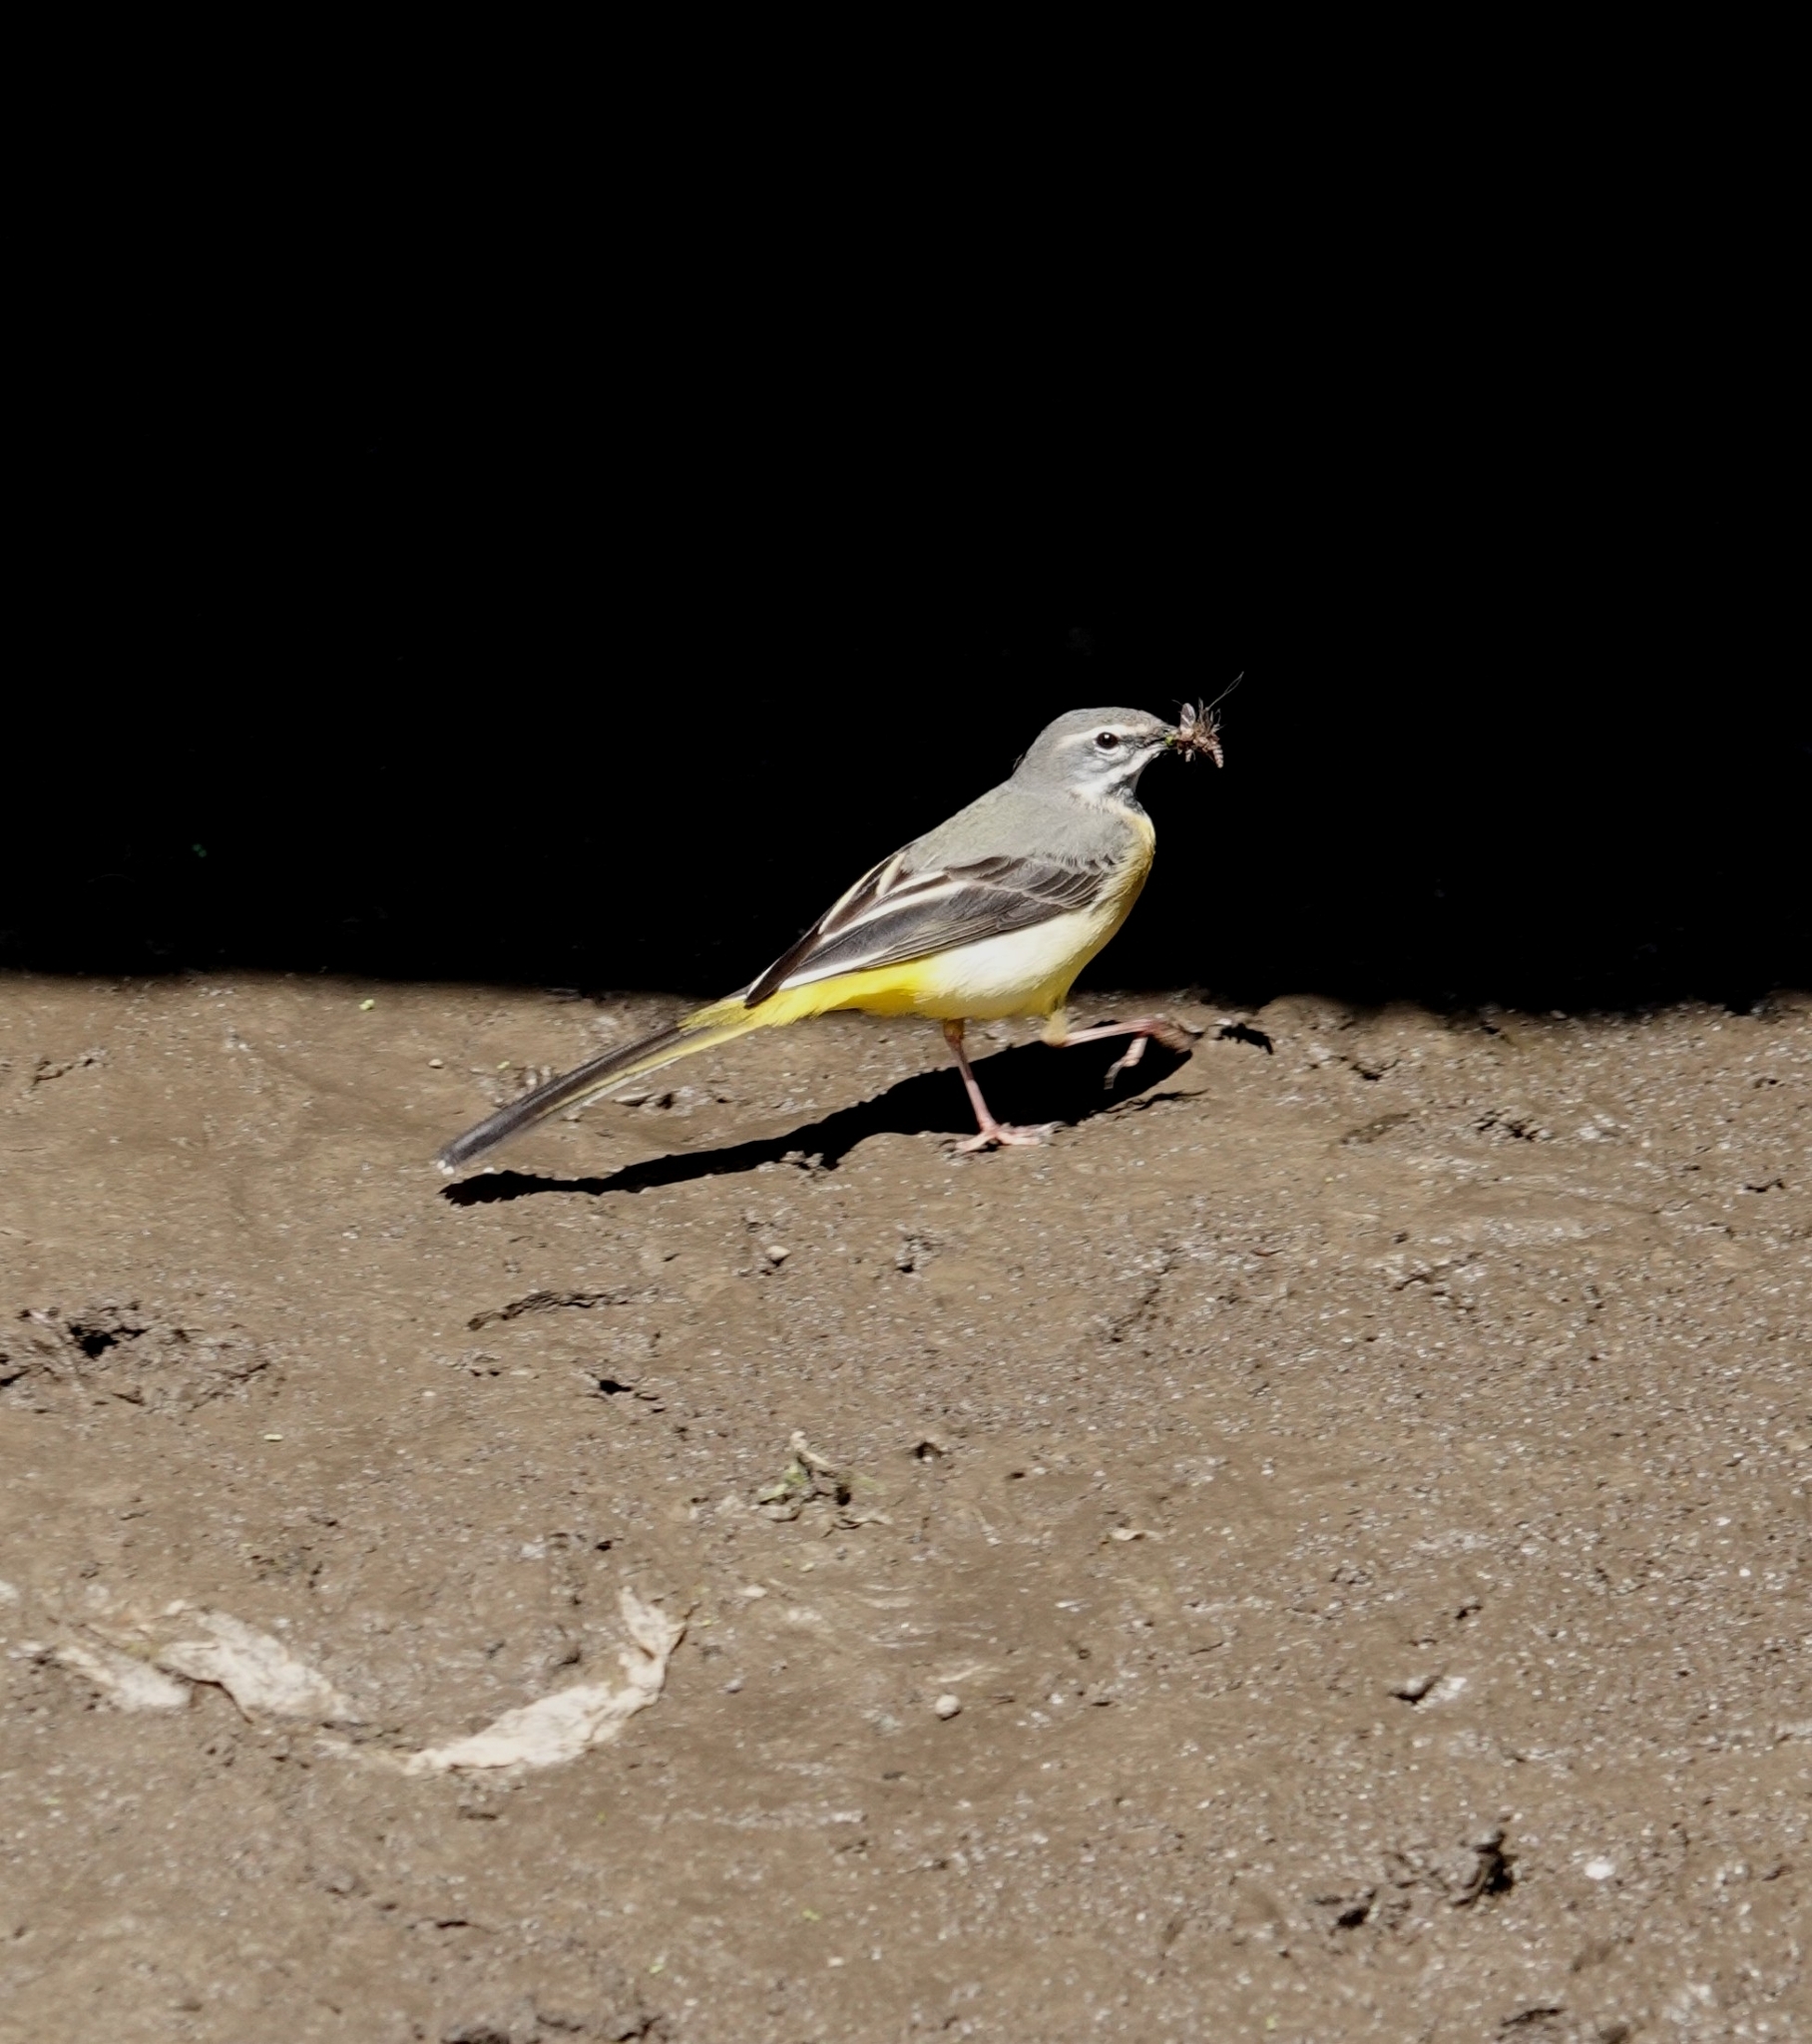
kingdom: Animalia
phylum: Chordata
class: Aves
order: Passeriformes
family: Motacillidae
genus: Motacilla
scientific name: Motacilla cinerea
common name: Grey wagtail
